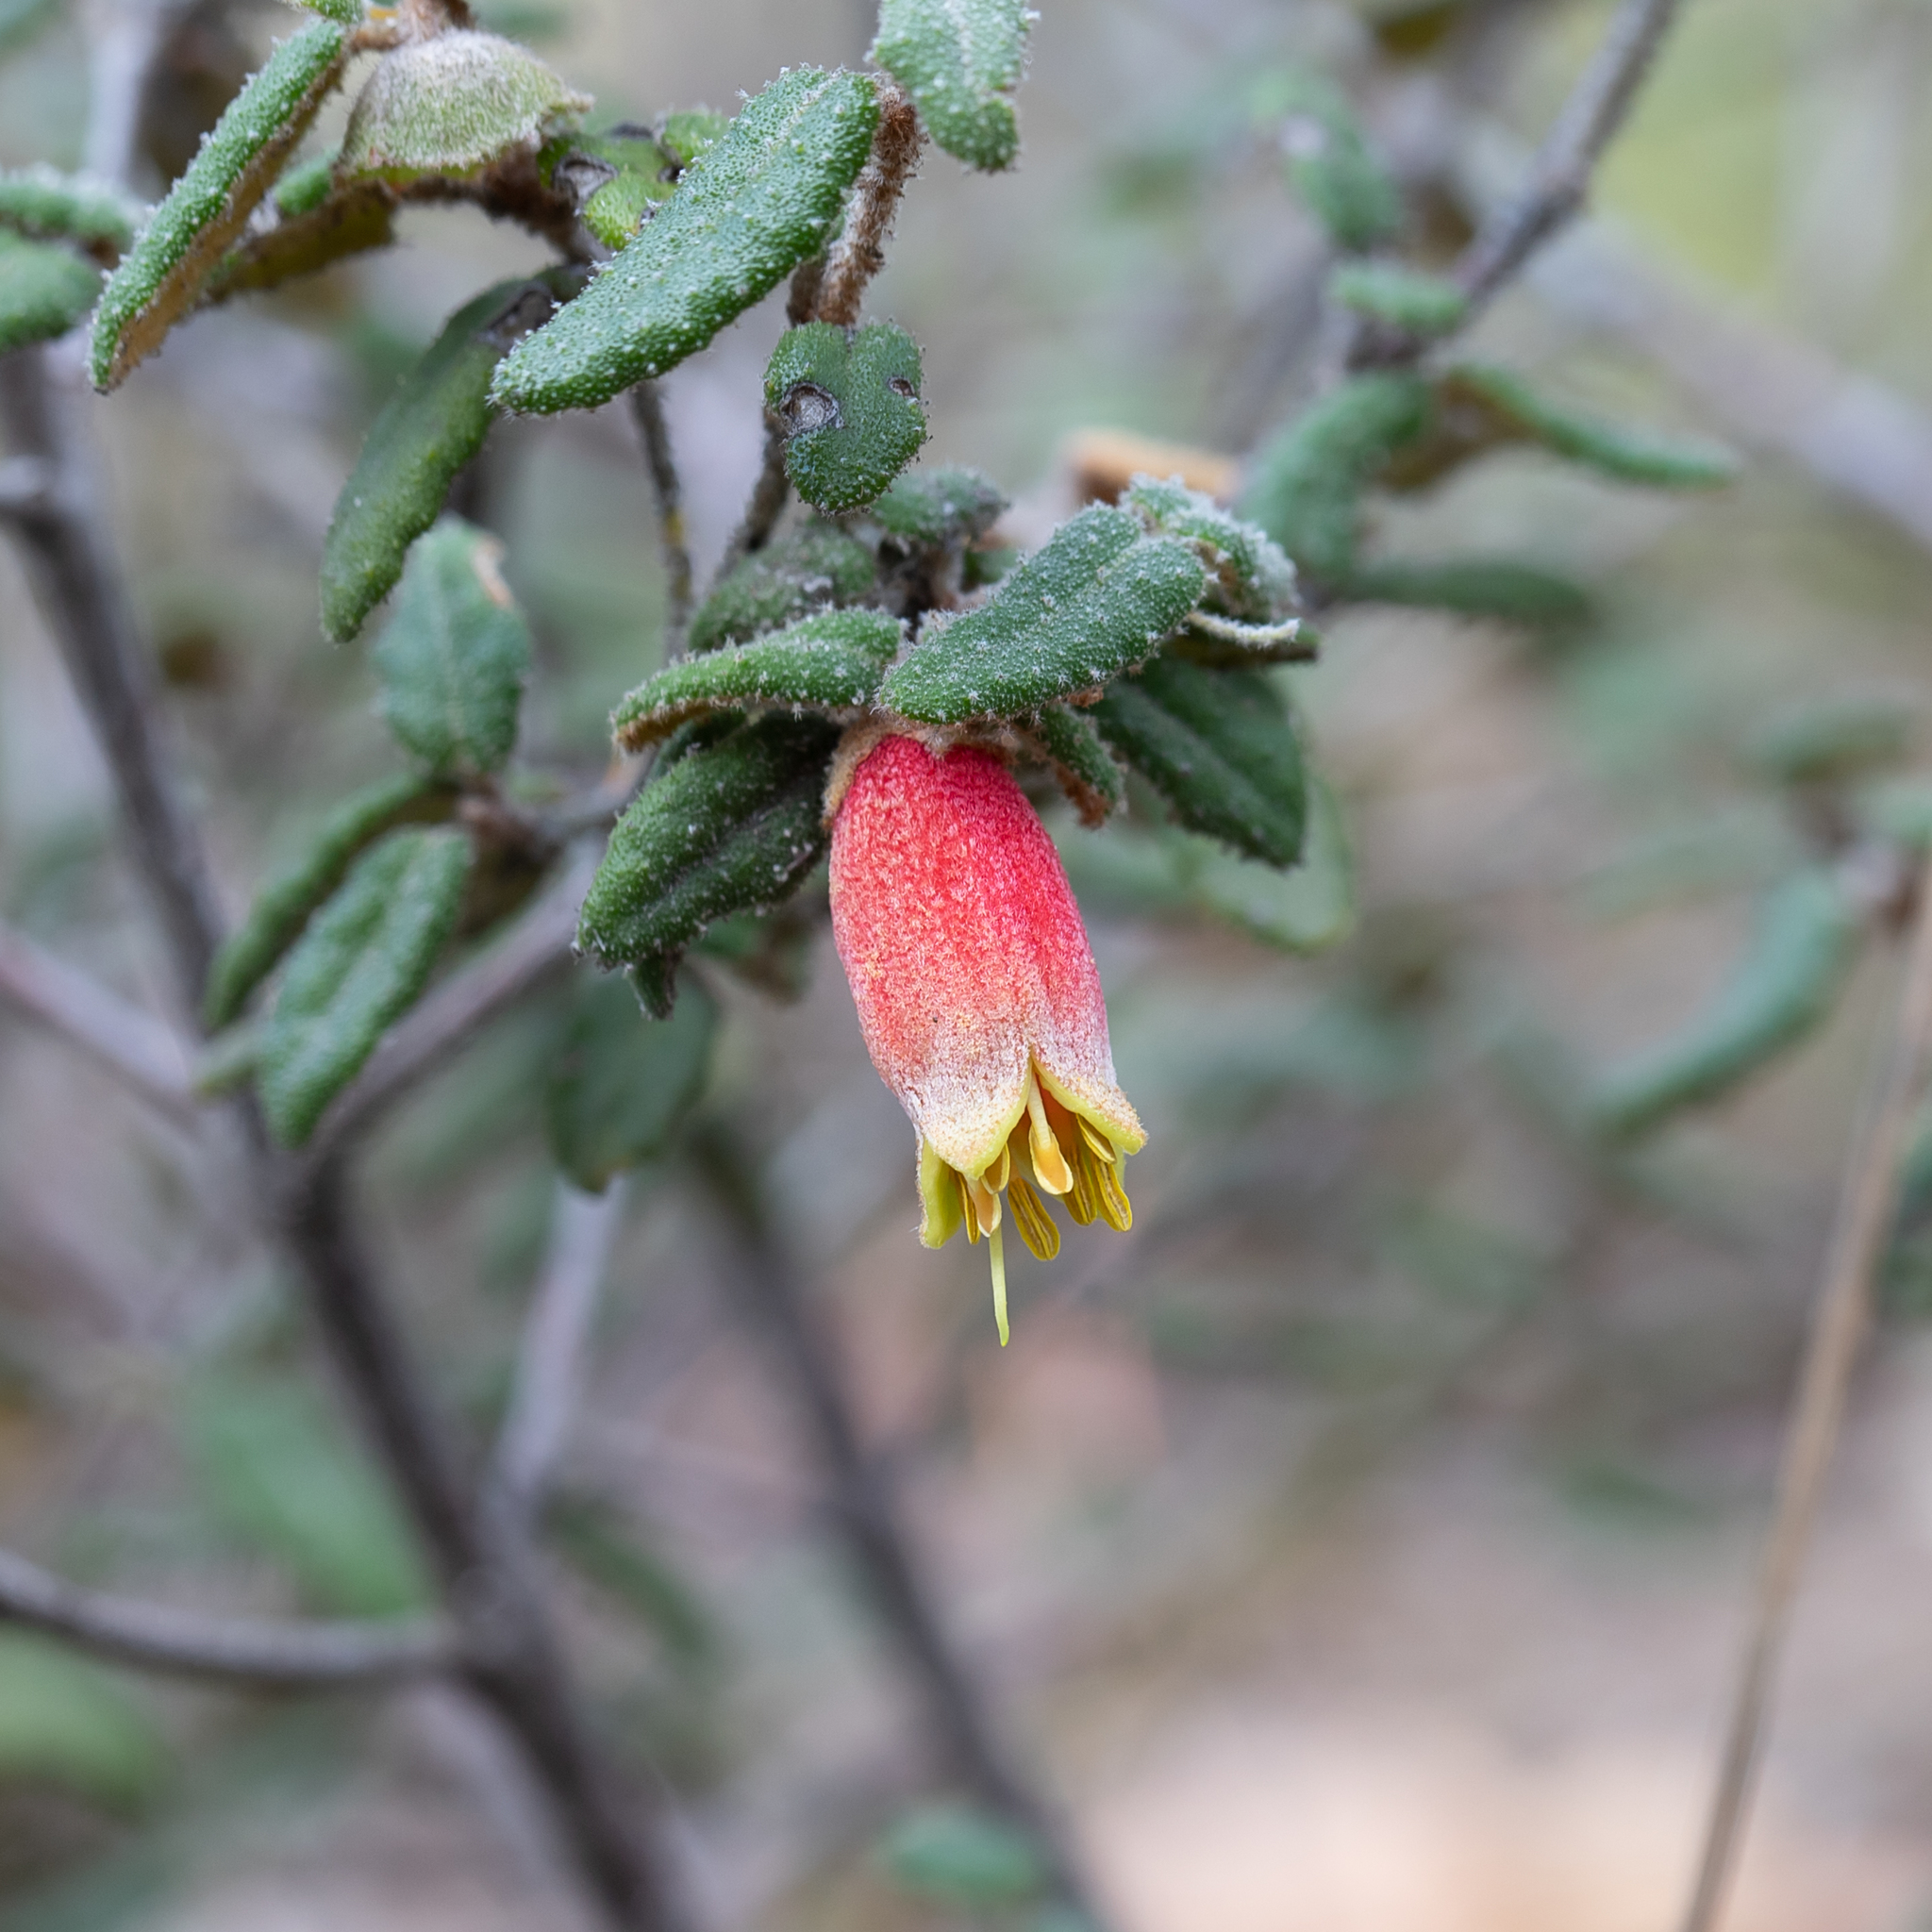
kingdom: Plantae
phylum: Tracheophyta
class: Magnoliopsida
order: Sapindales
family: Rutaceae
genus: Correa
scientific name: Correa reflexa
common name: Common correa
